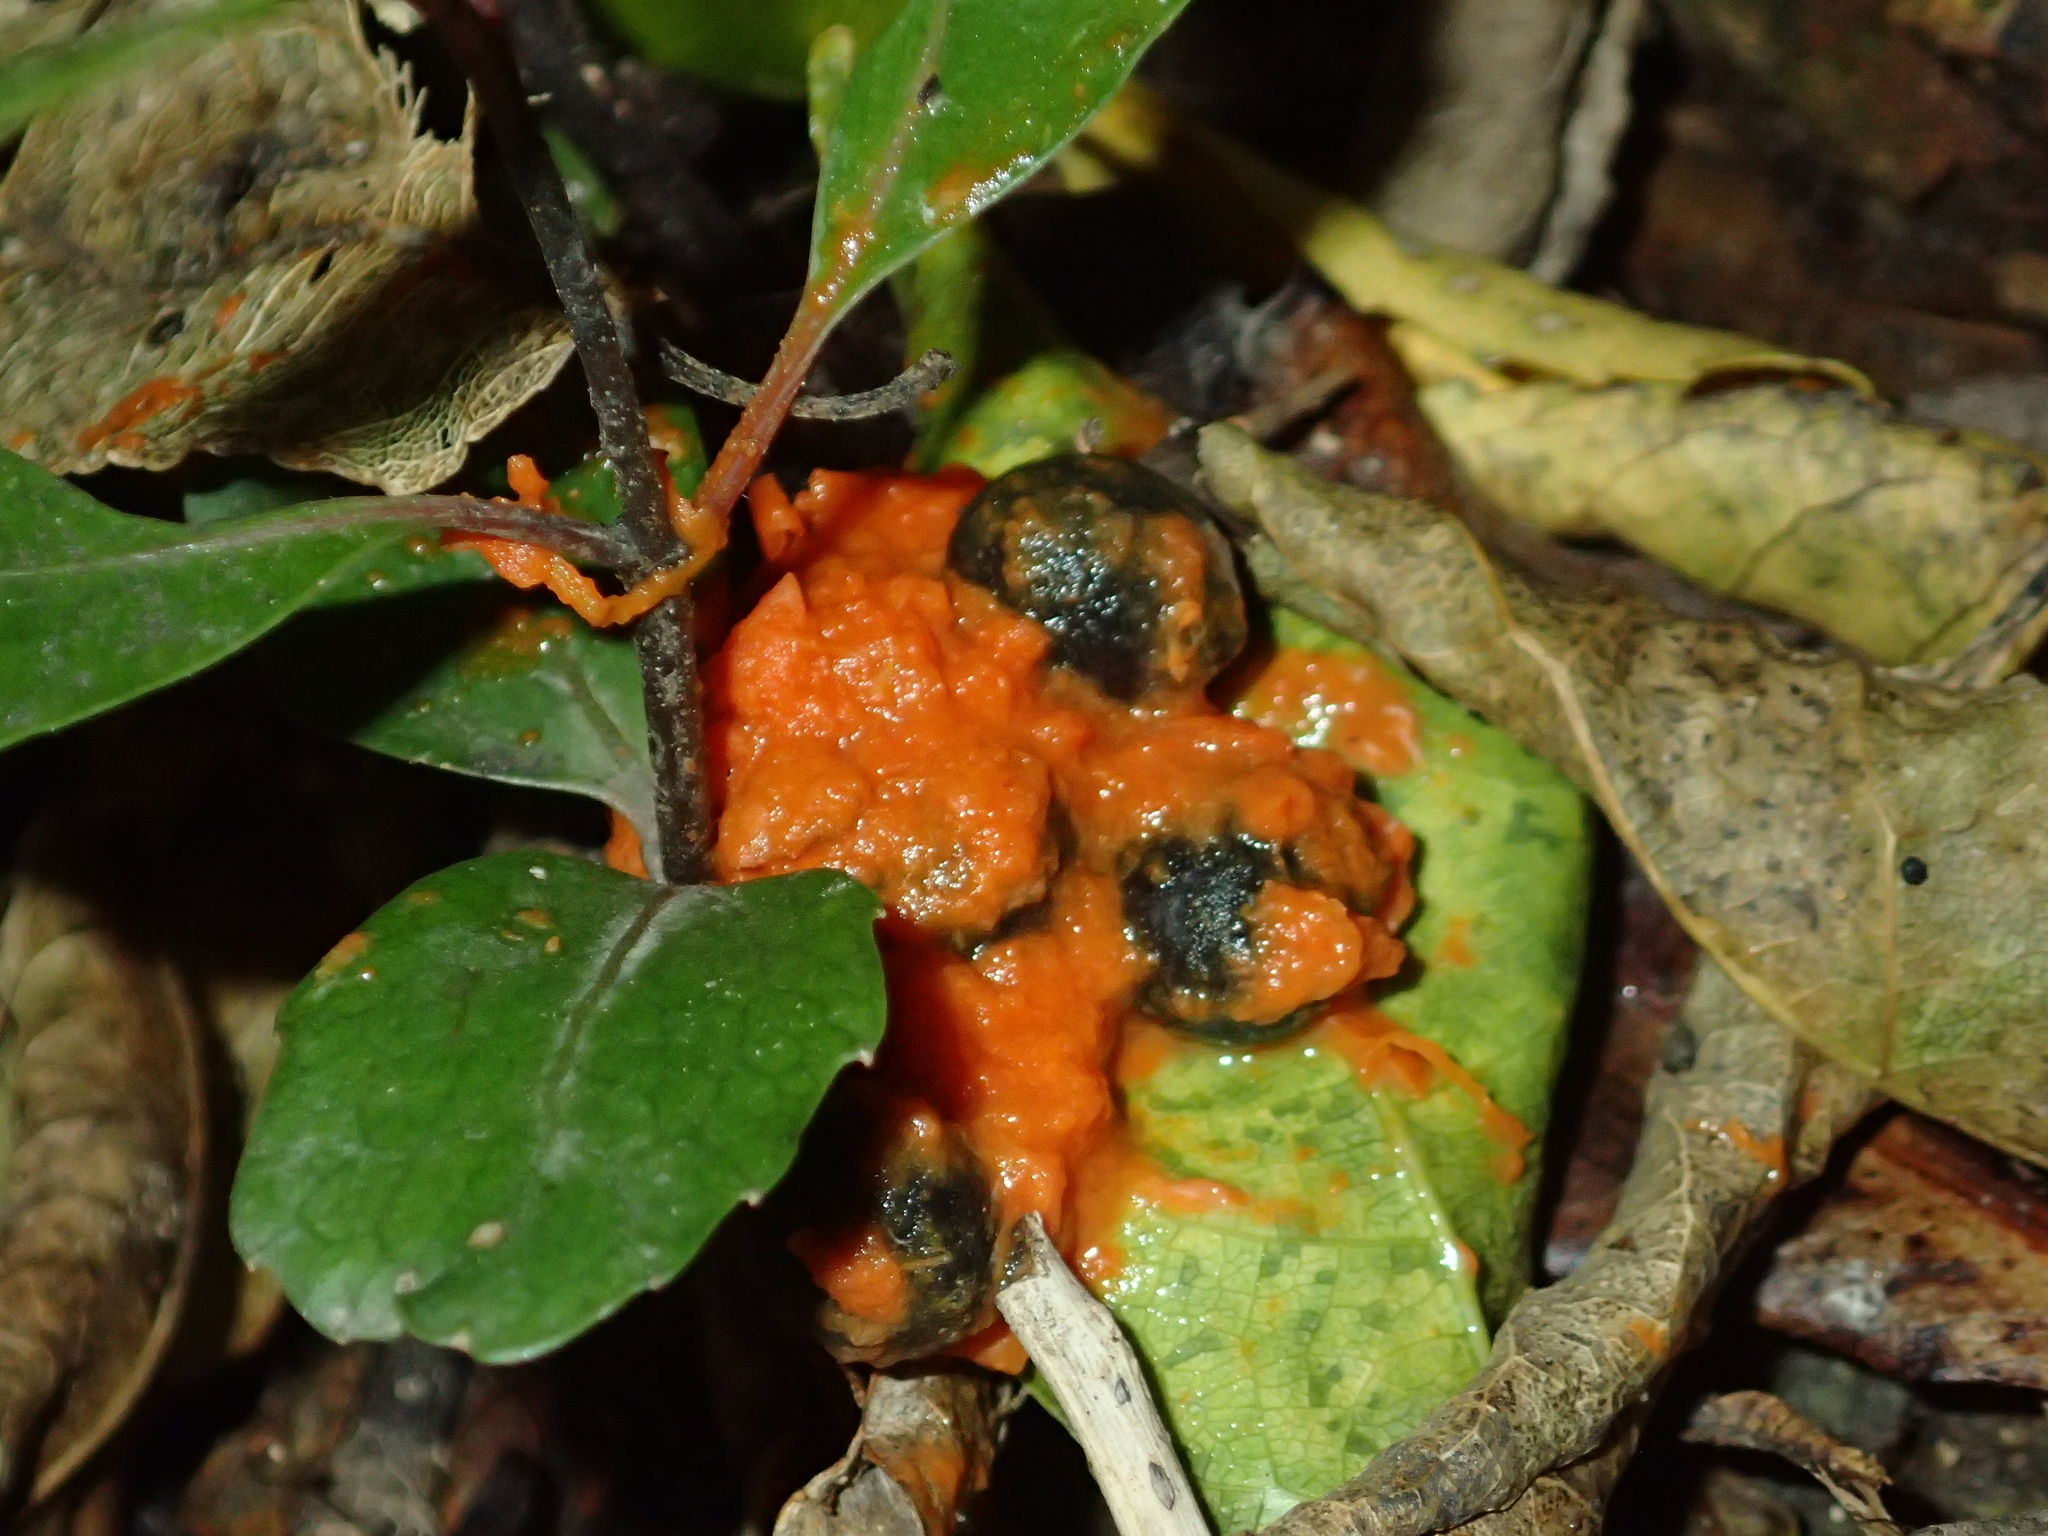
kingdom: Animalia
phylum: Chordata
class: Aves
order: Columbiformes
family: Columbidae
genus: Hemiphaga
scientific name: Hemiphaga novaeseelandiae
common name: New zealand pigeon
